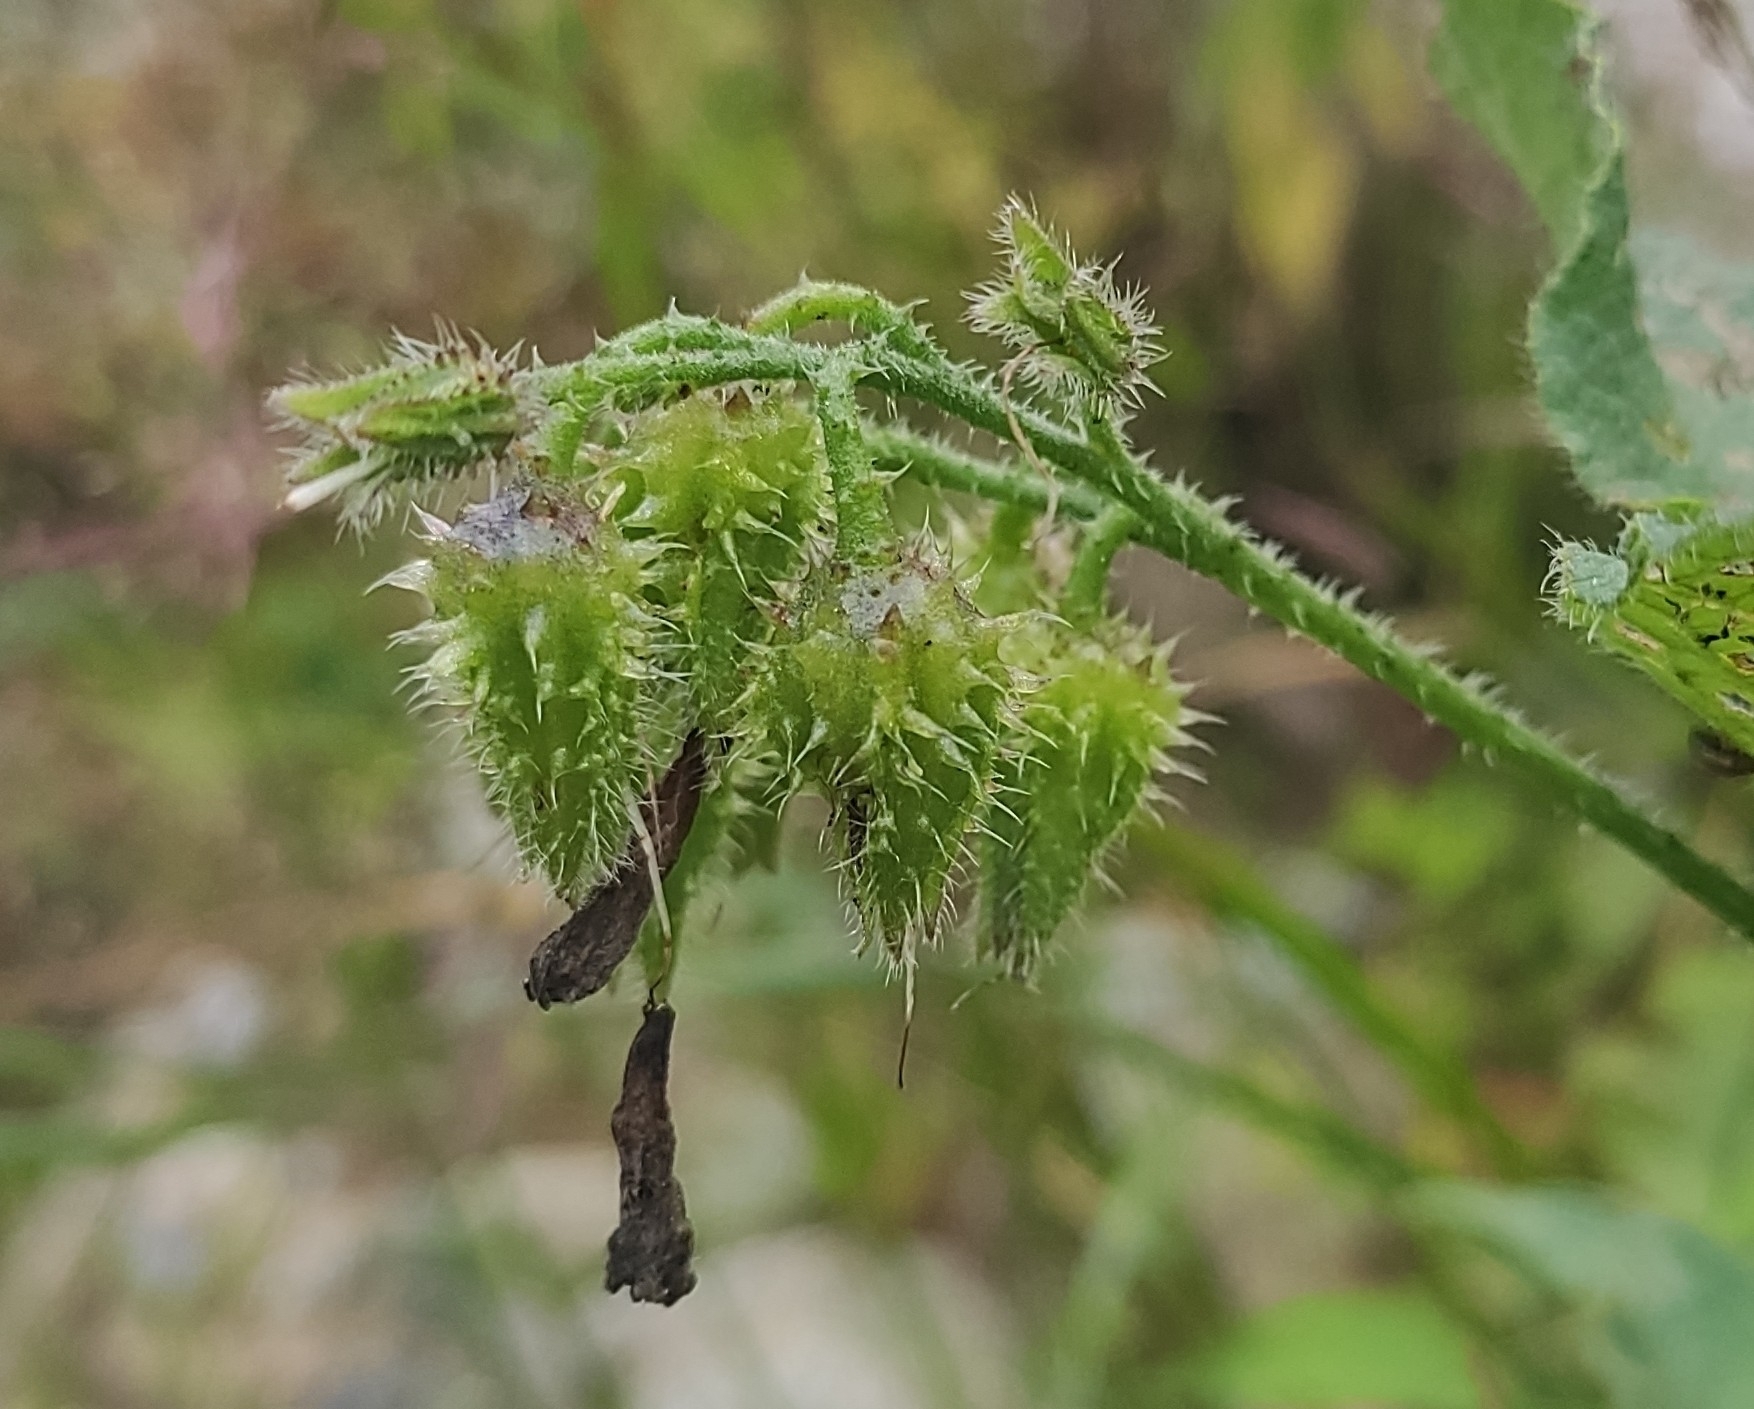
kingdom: Plantae
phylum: Tracheophyta
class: Magnoliopsida
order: Boraginales
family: Boraginaceae
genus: Symphytum
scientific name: Symphytum asperum
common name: Prickly comfrey
